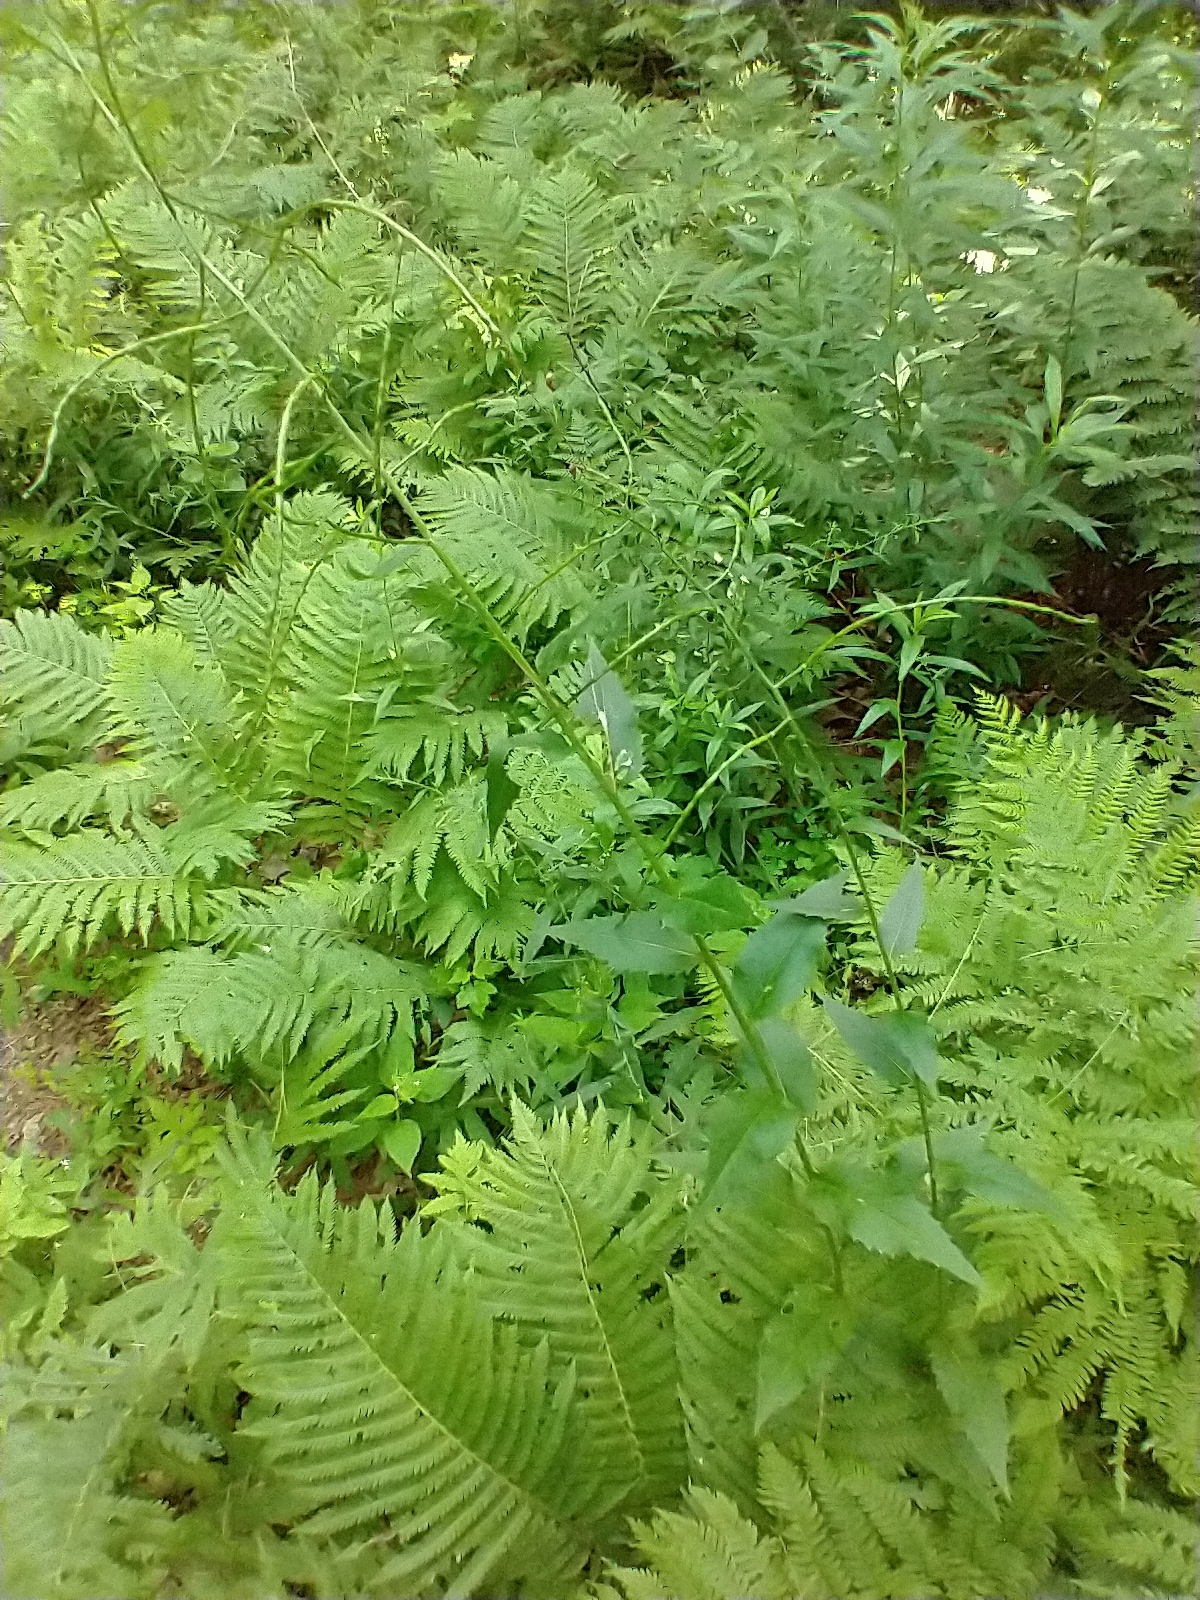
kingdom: Plantae
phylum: Tracheophyta
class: Magnoliopsida
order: Brassicales
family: Brassicaceae
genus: Hesperis
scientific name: Hesperis matronalis
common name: Dame's-violet
